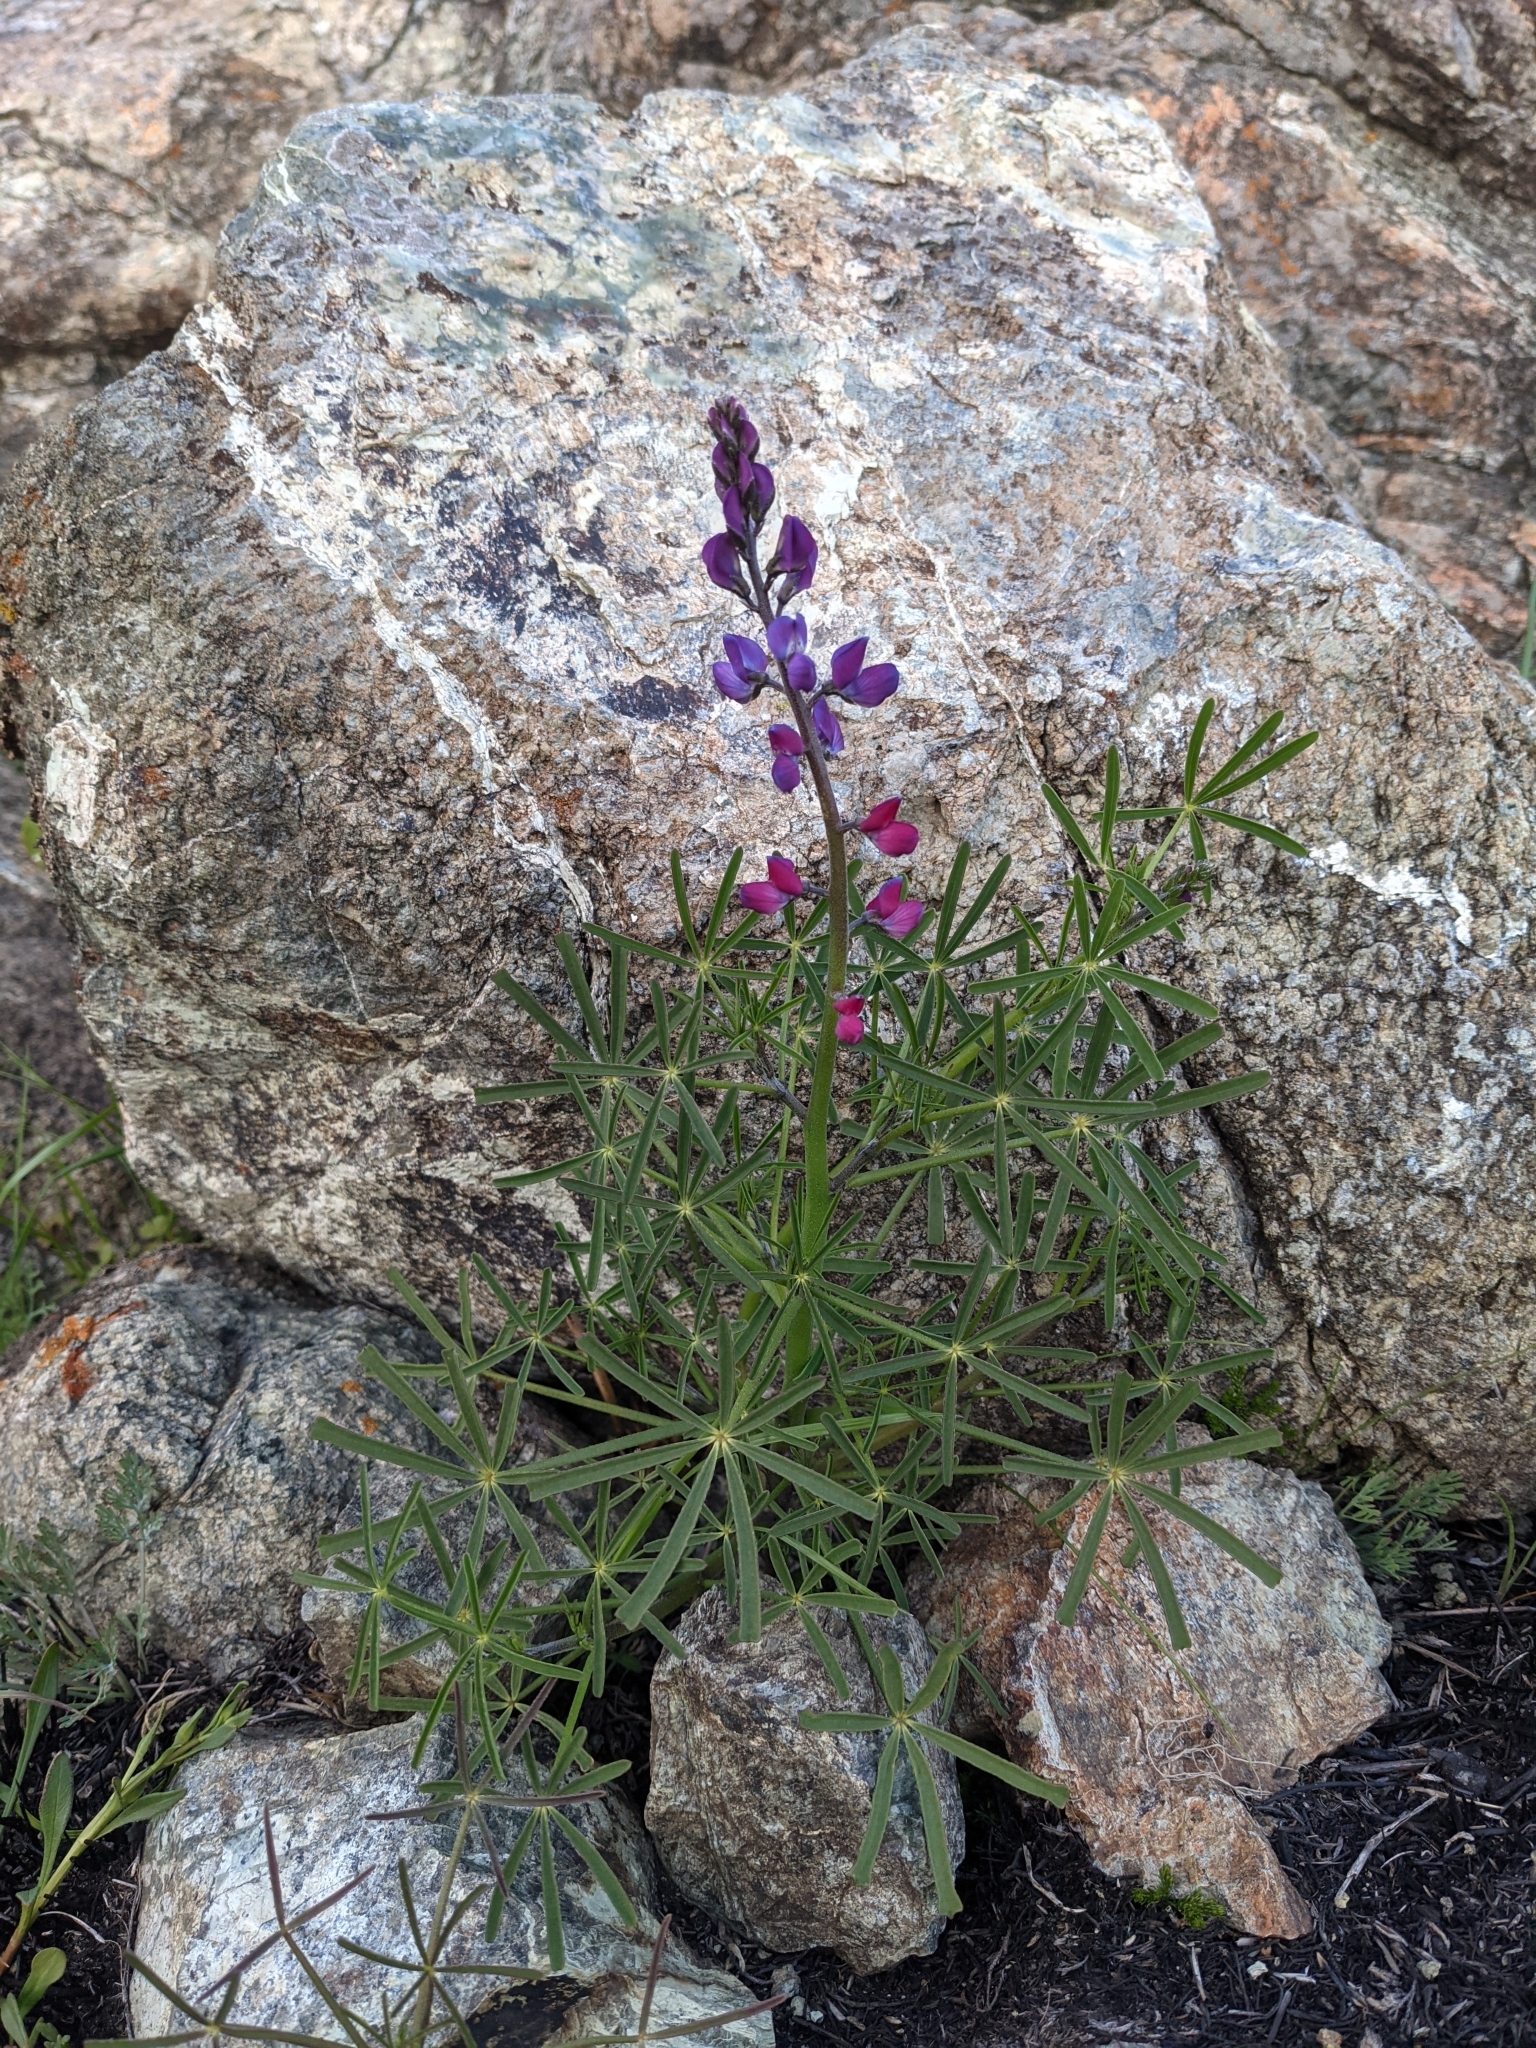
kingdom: Plantae
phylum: Tracheophyta
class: Magnoliopsida
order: Fabales
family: Fabaceae
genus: Lupinus
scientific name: Lupinus truncatus
